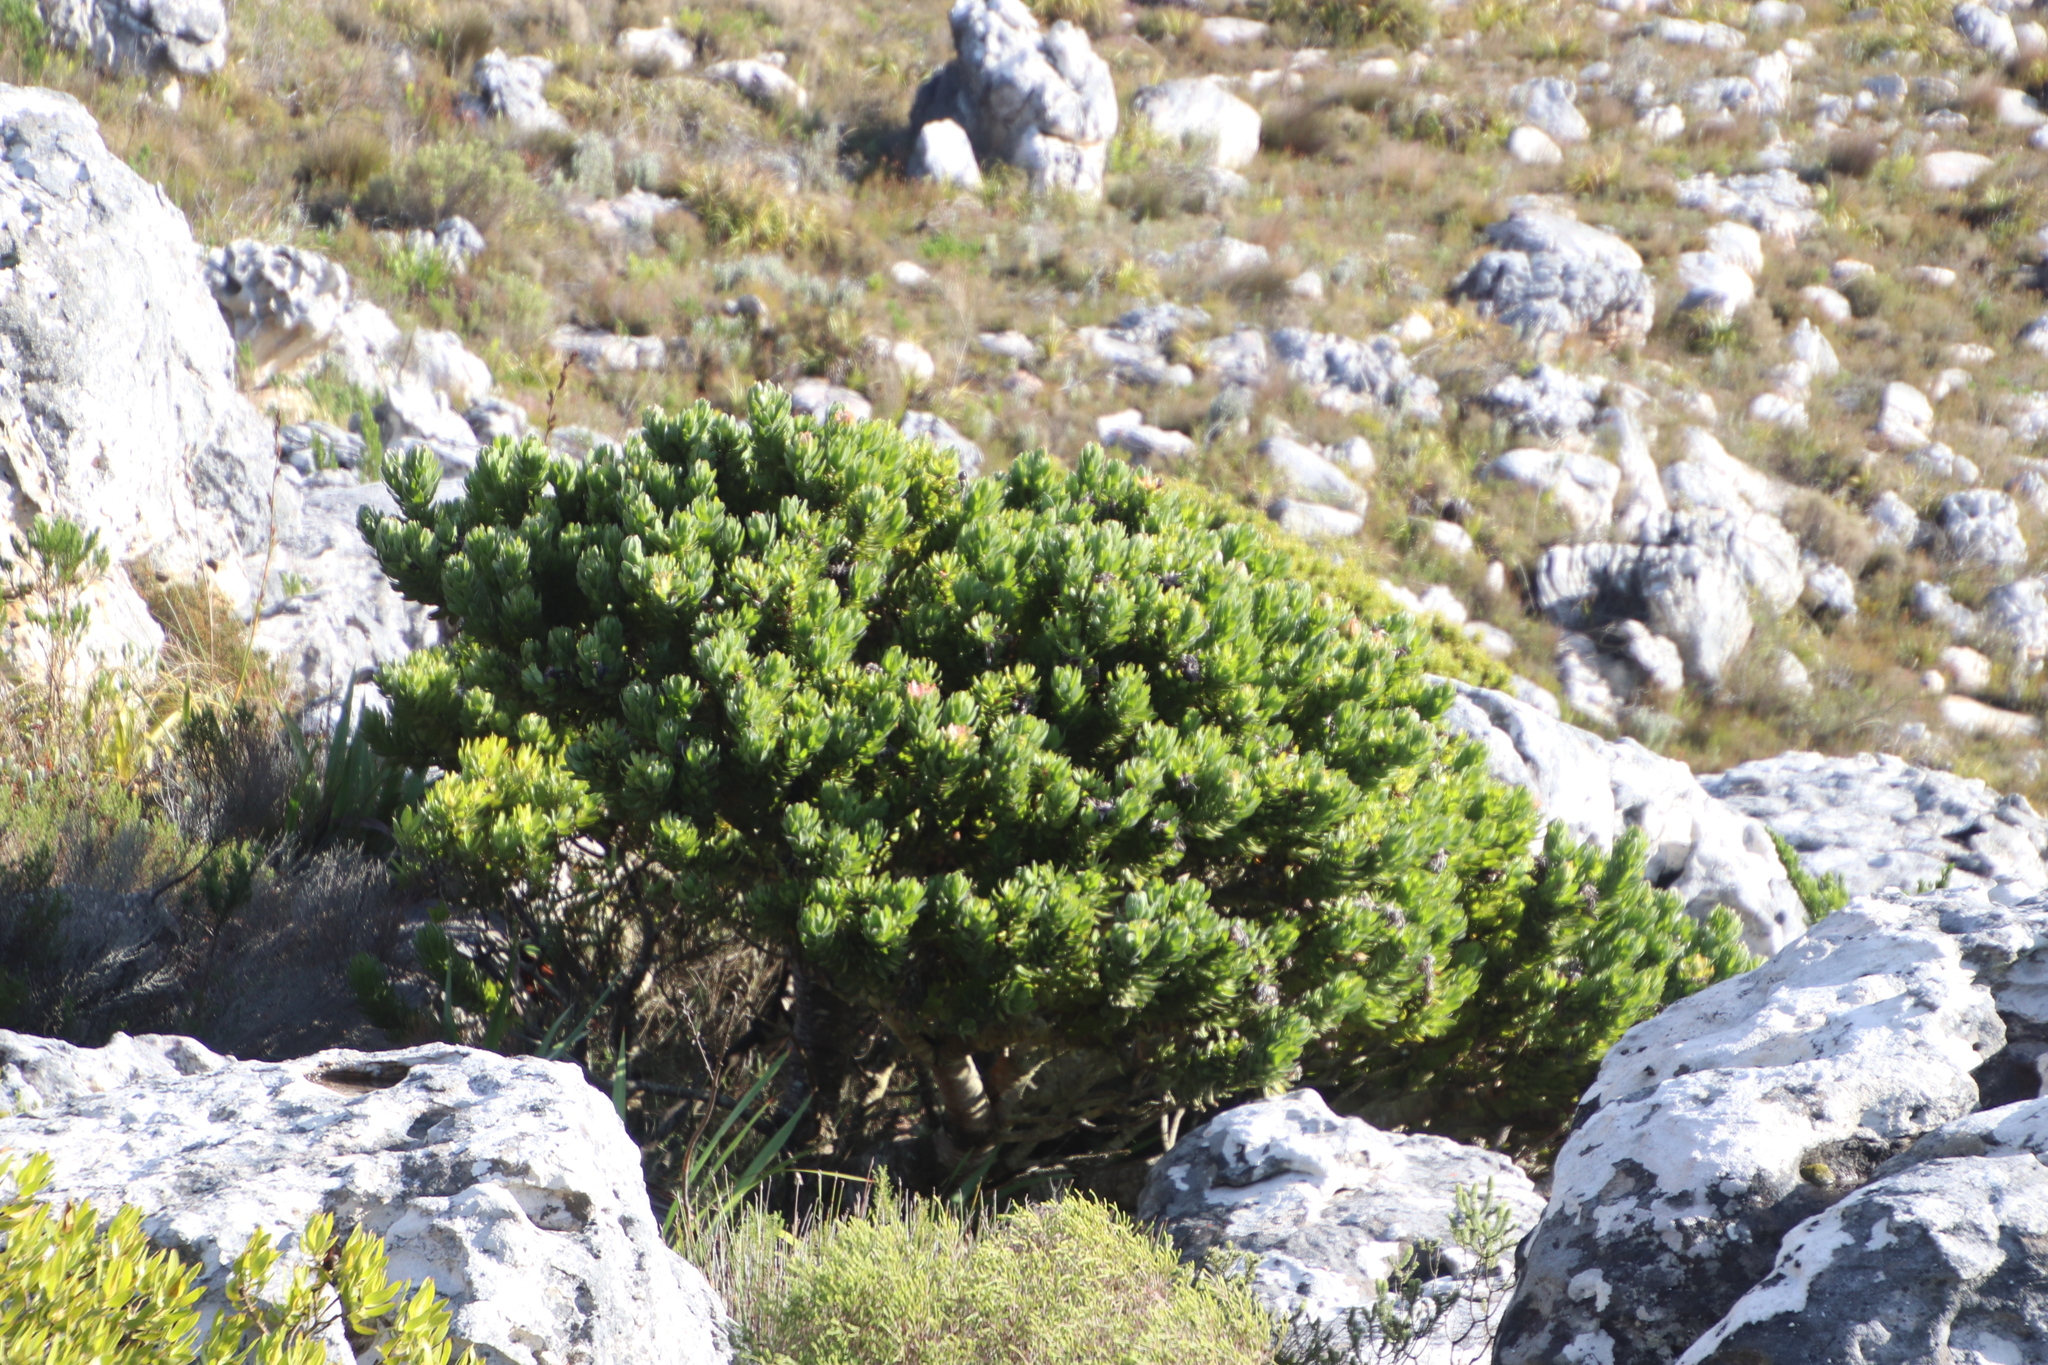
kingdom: Plantae
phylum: Tracheophyta
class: Magnoliopsida
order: Proteales
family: Proteaceae
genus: Mimetes
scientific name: Mimetes fimbriifolius
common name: Fringed bottlebrush
